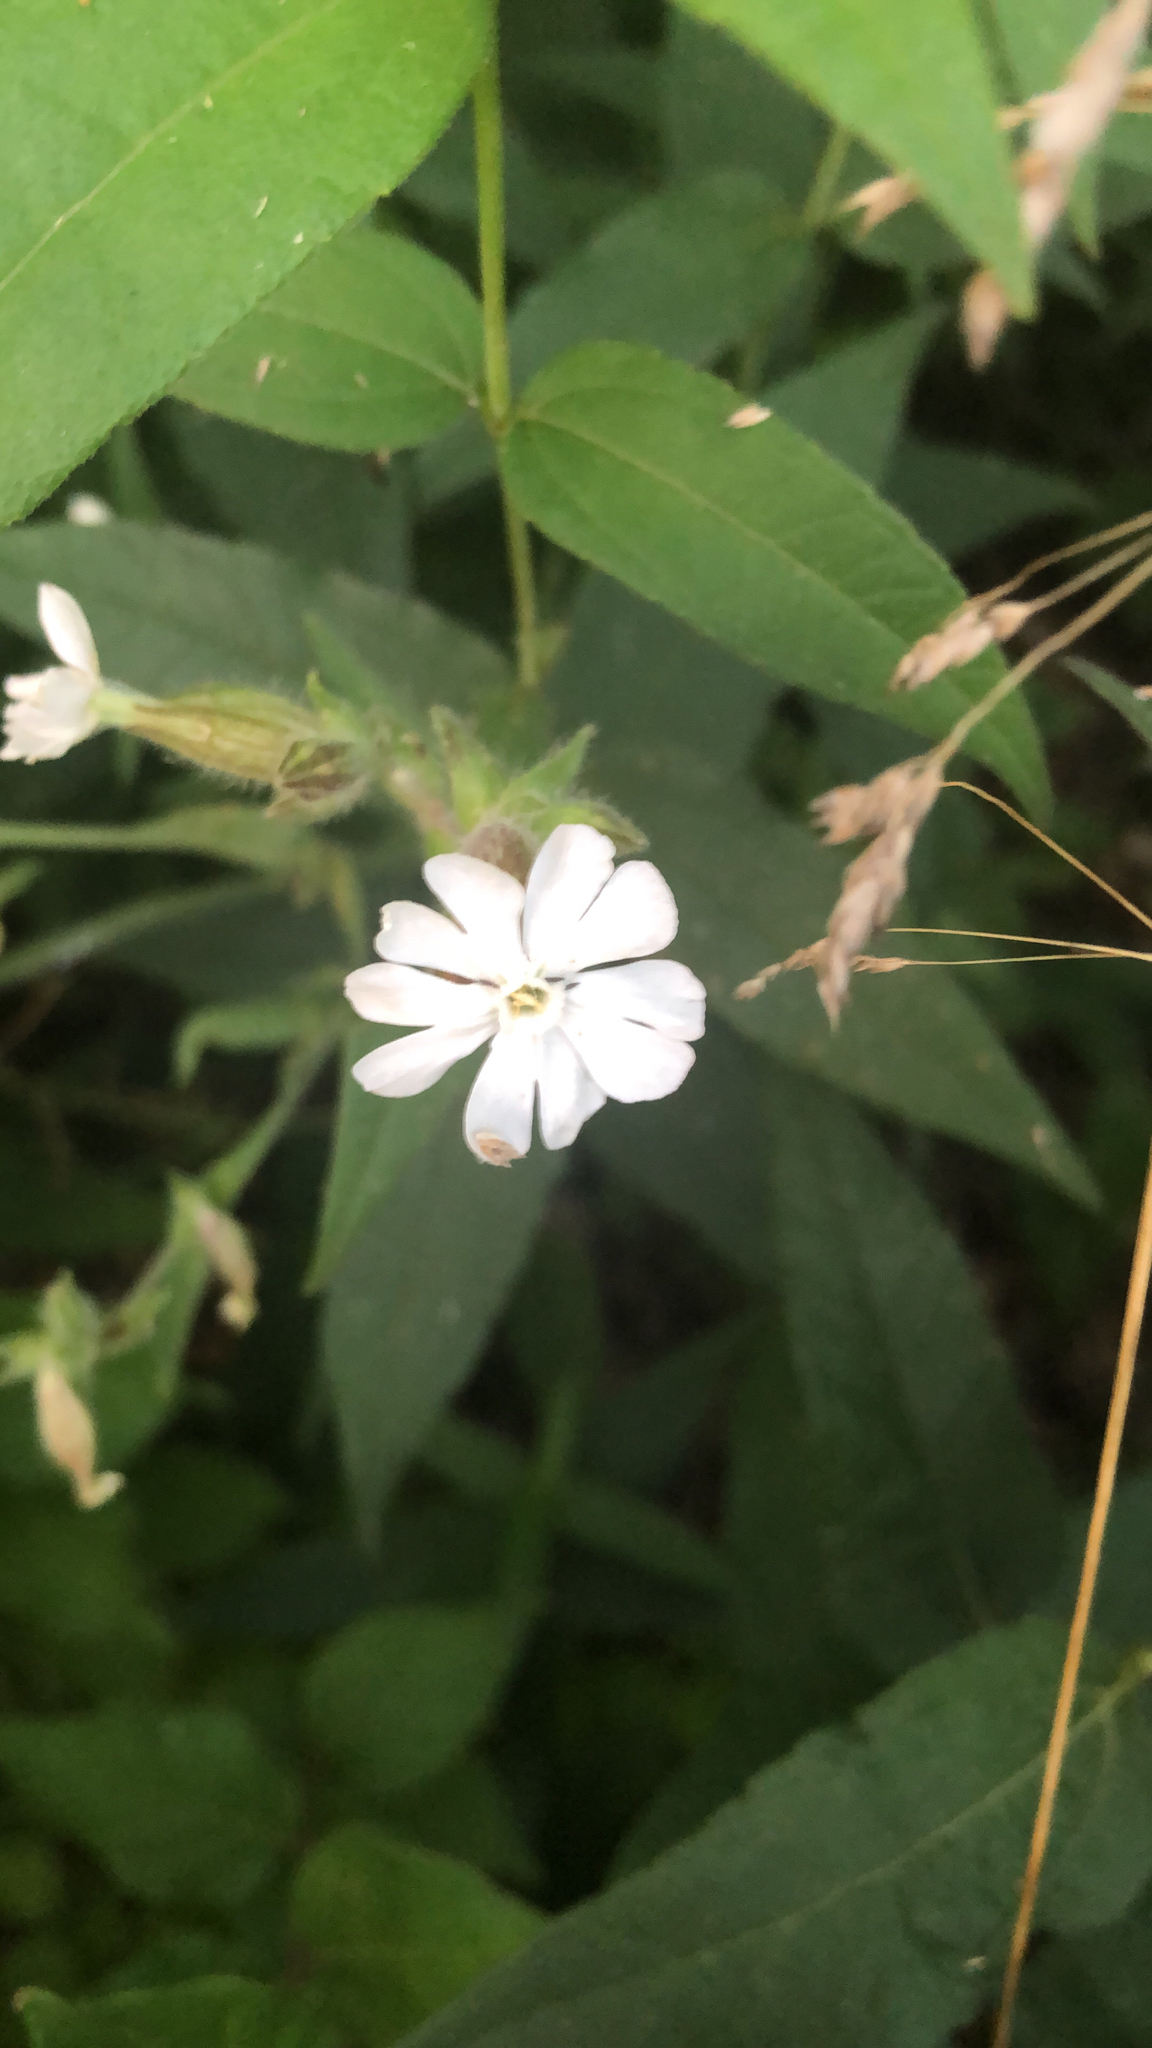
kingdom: Plantae
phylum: Tracheophyta
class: Magnoliopsida
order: Caryophyllales
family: Caryophyllaceae
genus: Silene
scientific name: Silene latifolia
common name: White campion
